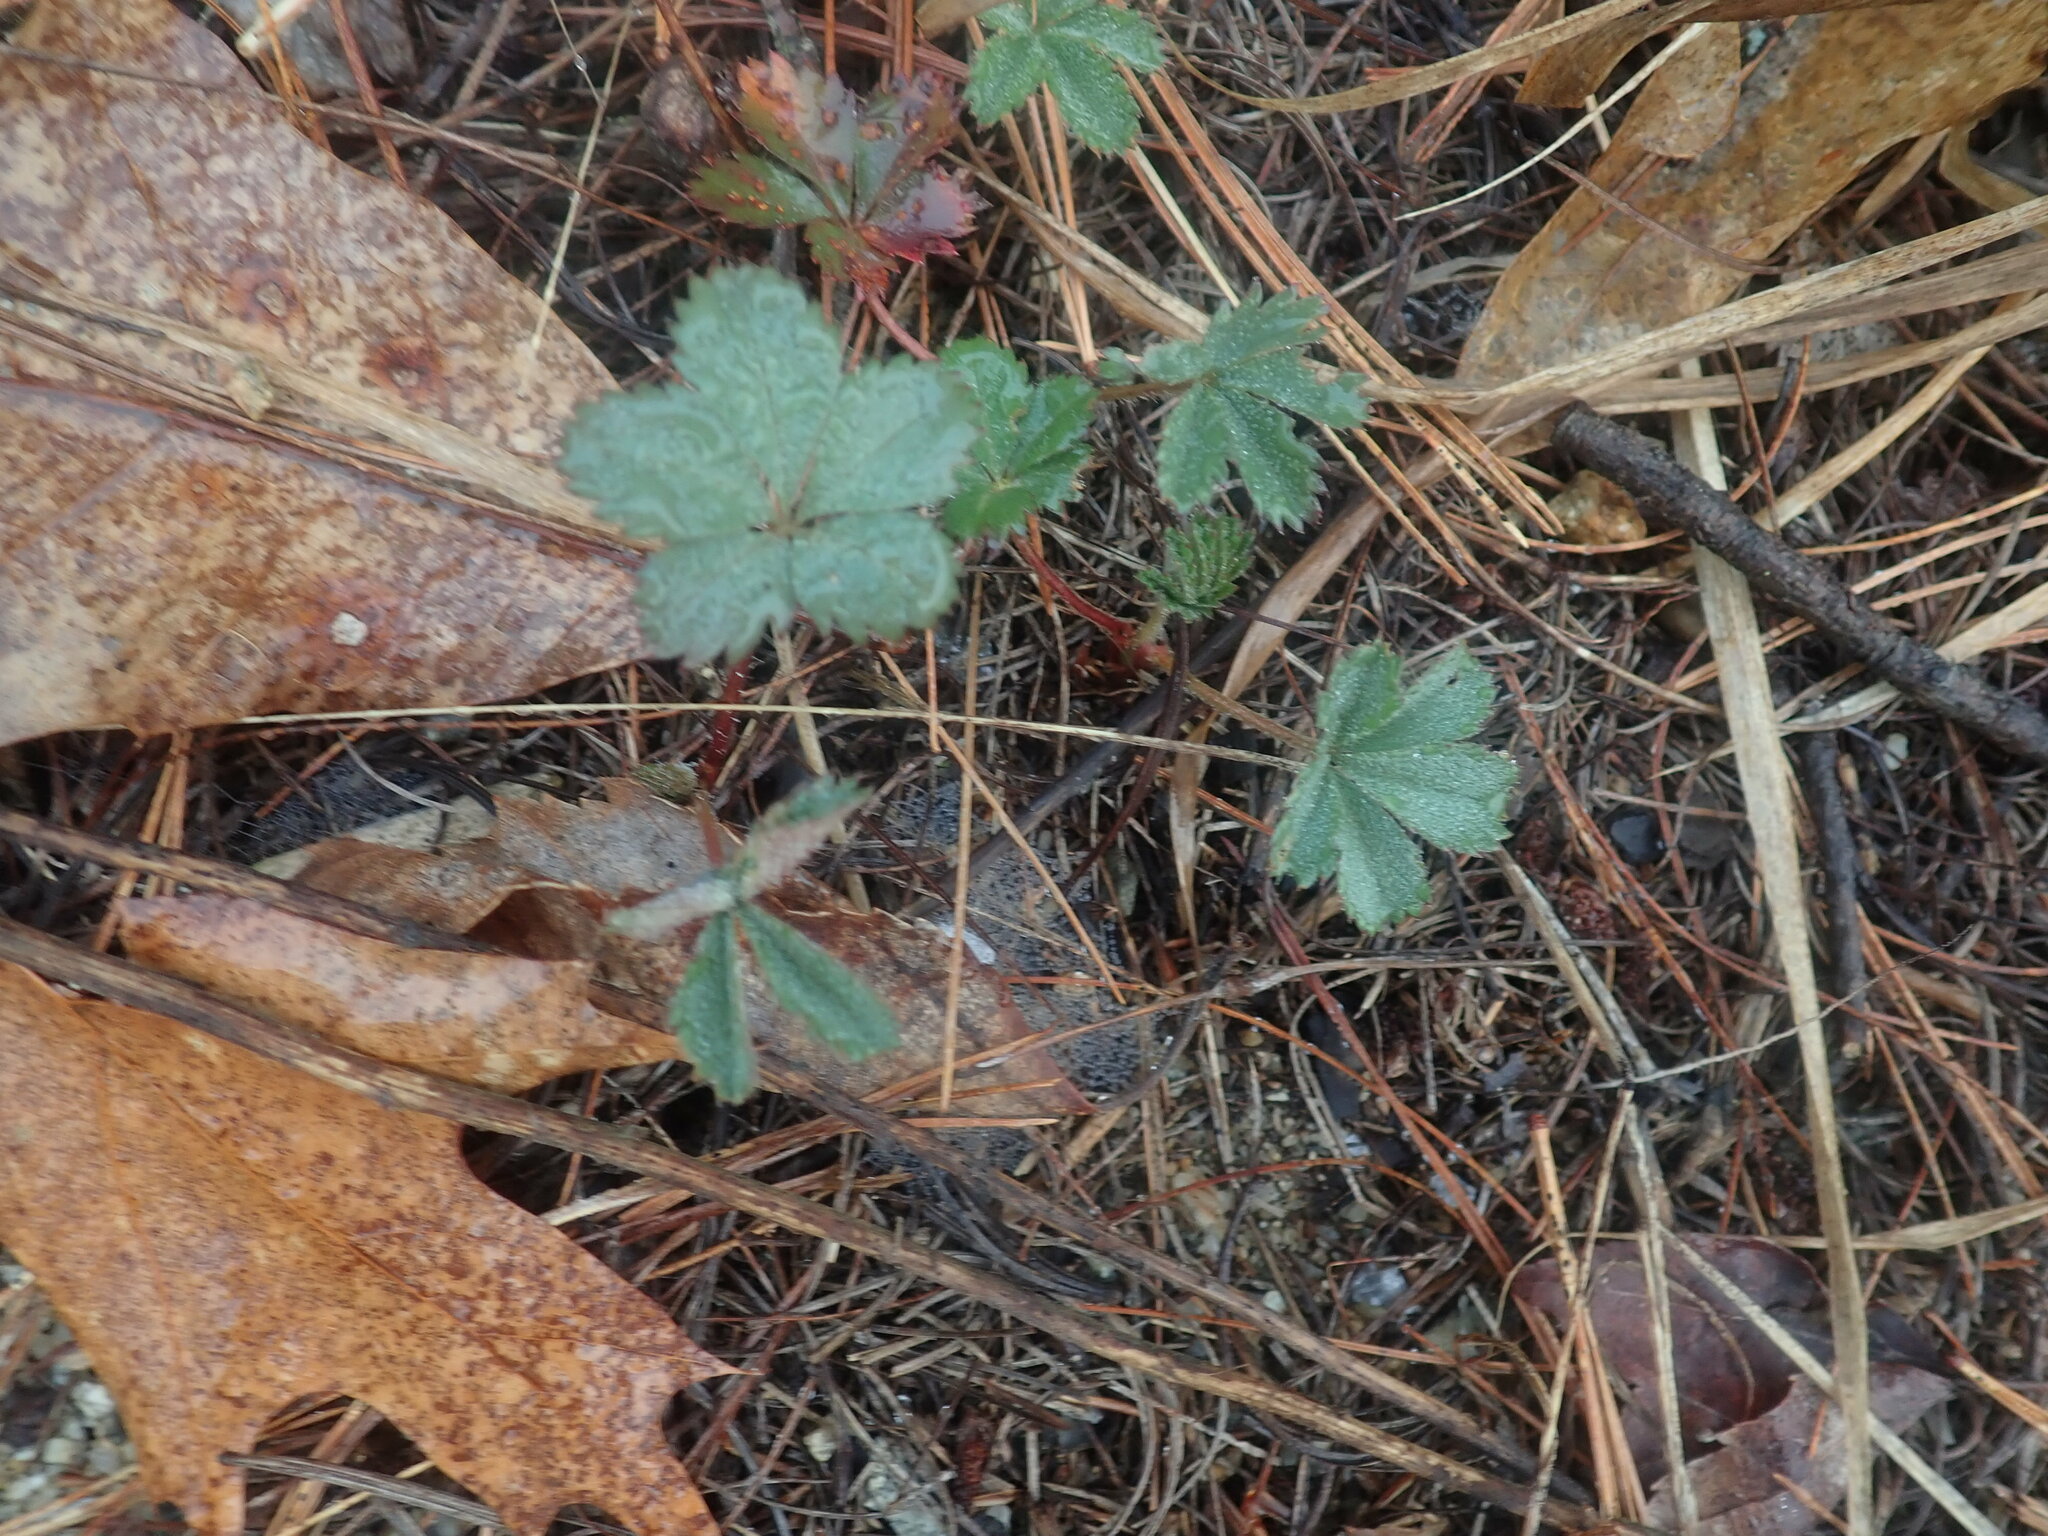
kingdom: Plantae
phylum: Tracheophyta
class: Magnoliopsida
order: Rosales
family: Rosaceae
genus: Potentilla
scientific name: Potentilla canadensis
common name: Canada cinquefoil
